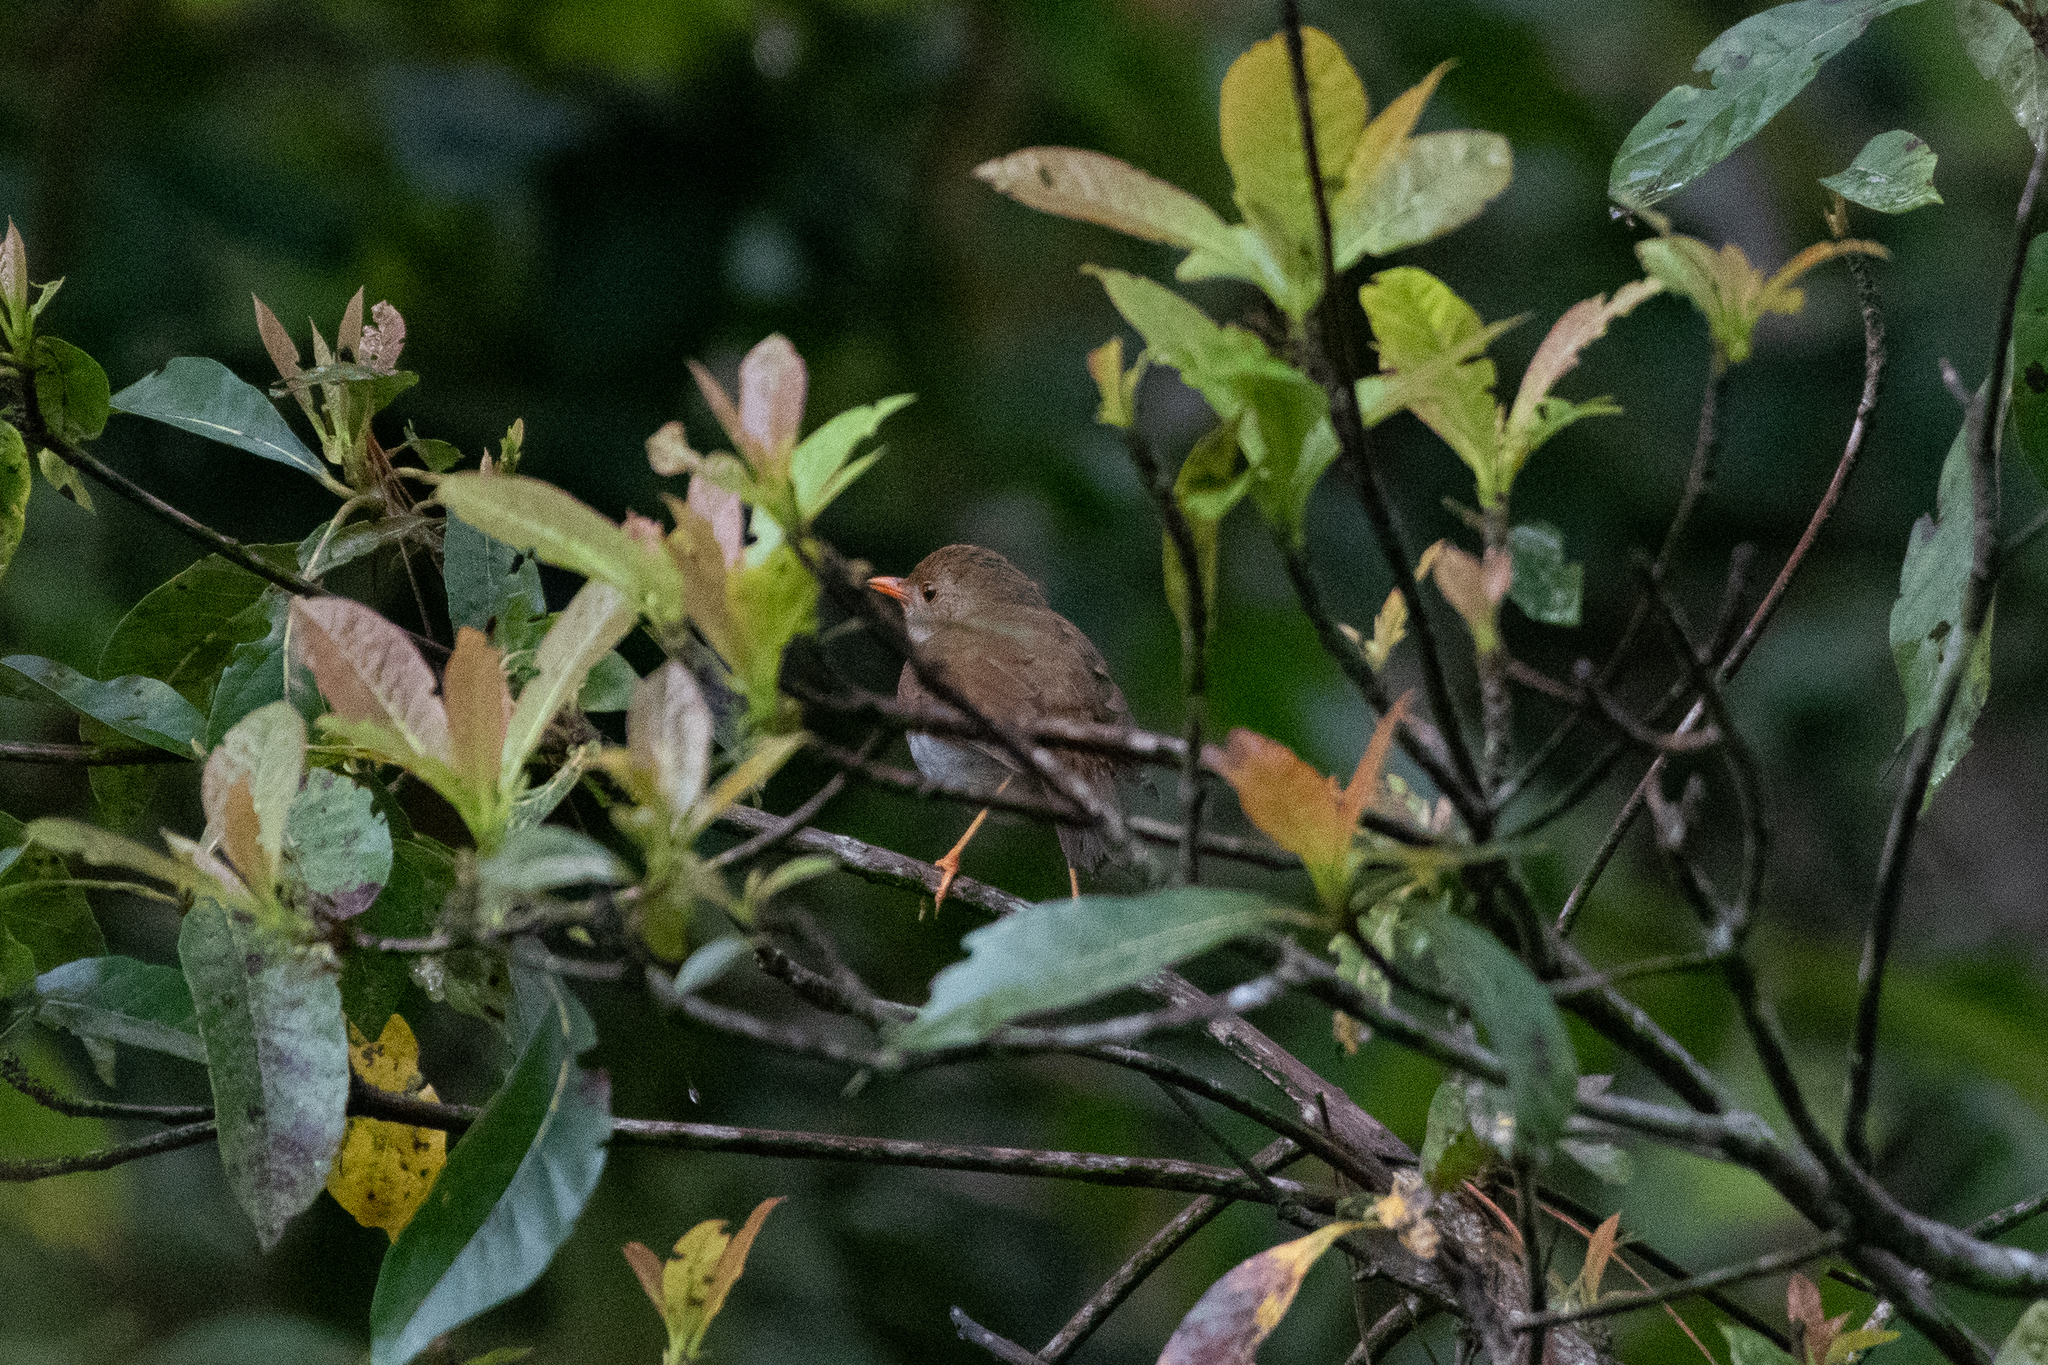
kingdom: Animalia
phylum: Chordata
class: Aves
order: Passeriformes
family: Turdidae
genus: Catharus
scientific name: Catharus aurantiirostris
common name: Orange-billed nightingale-thrush
